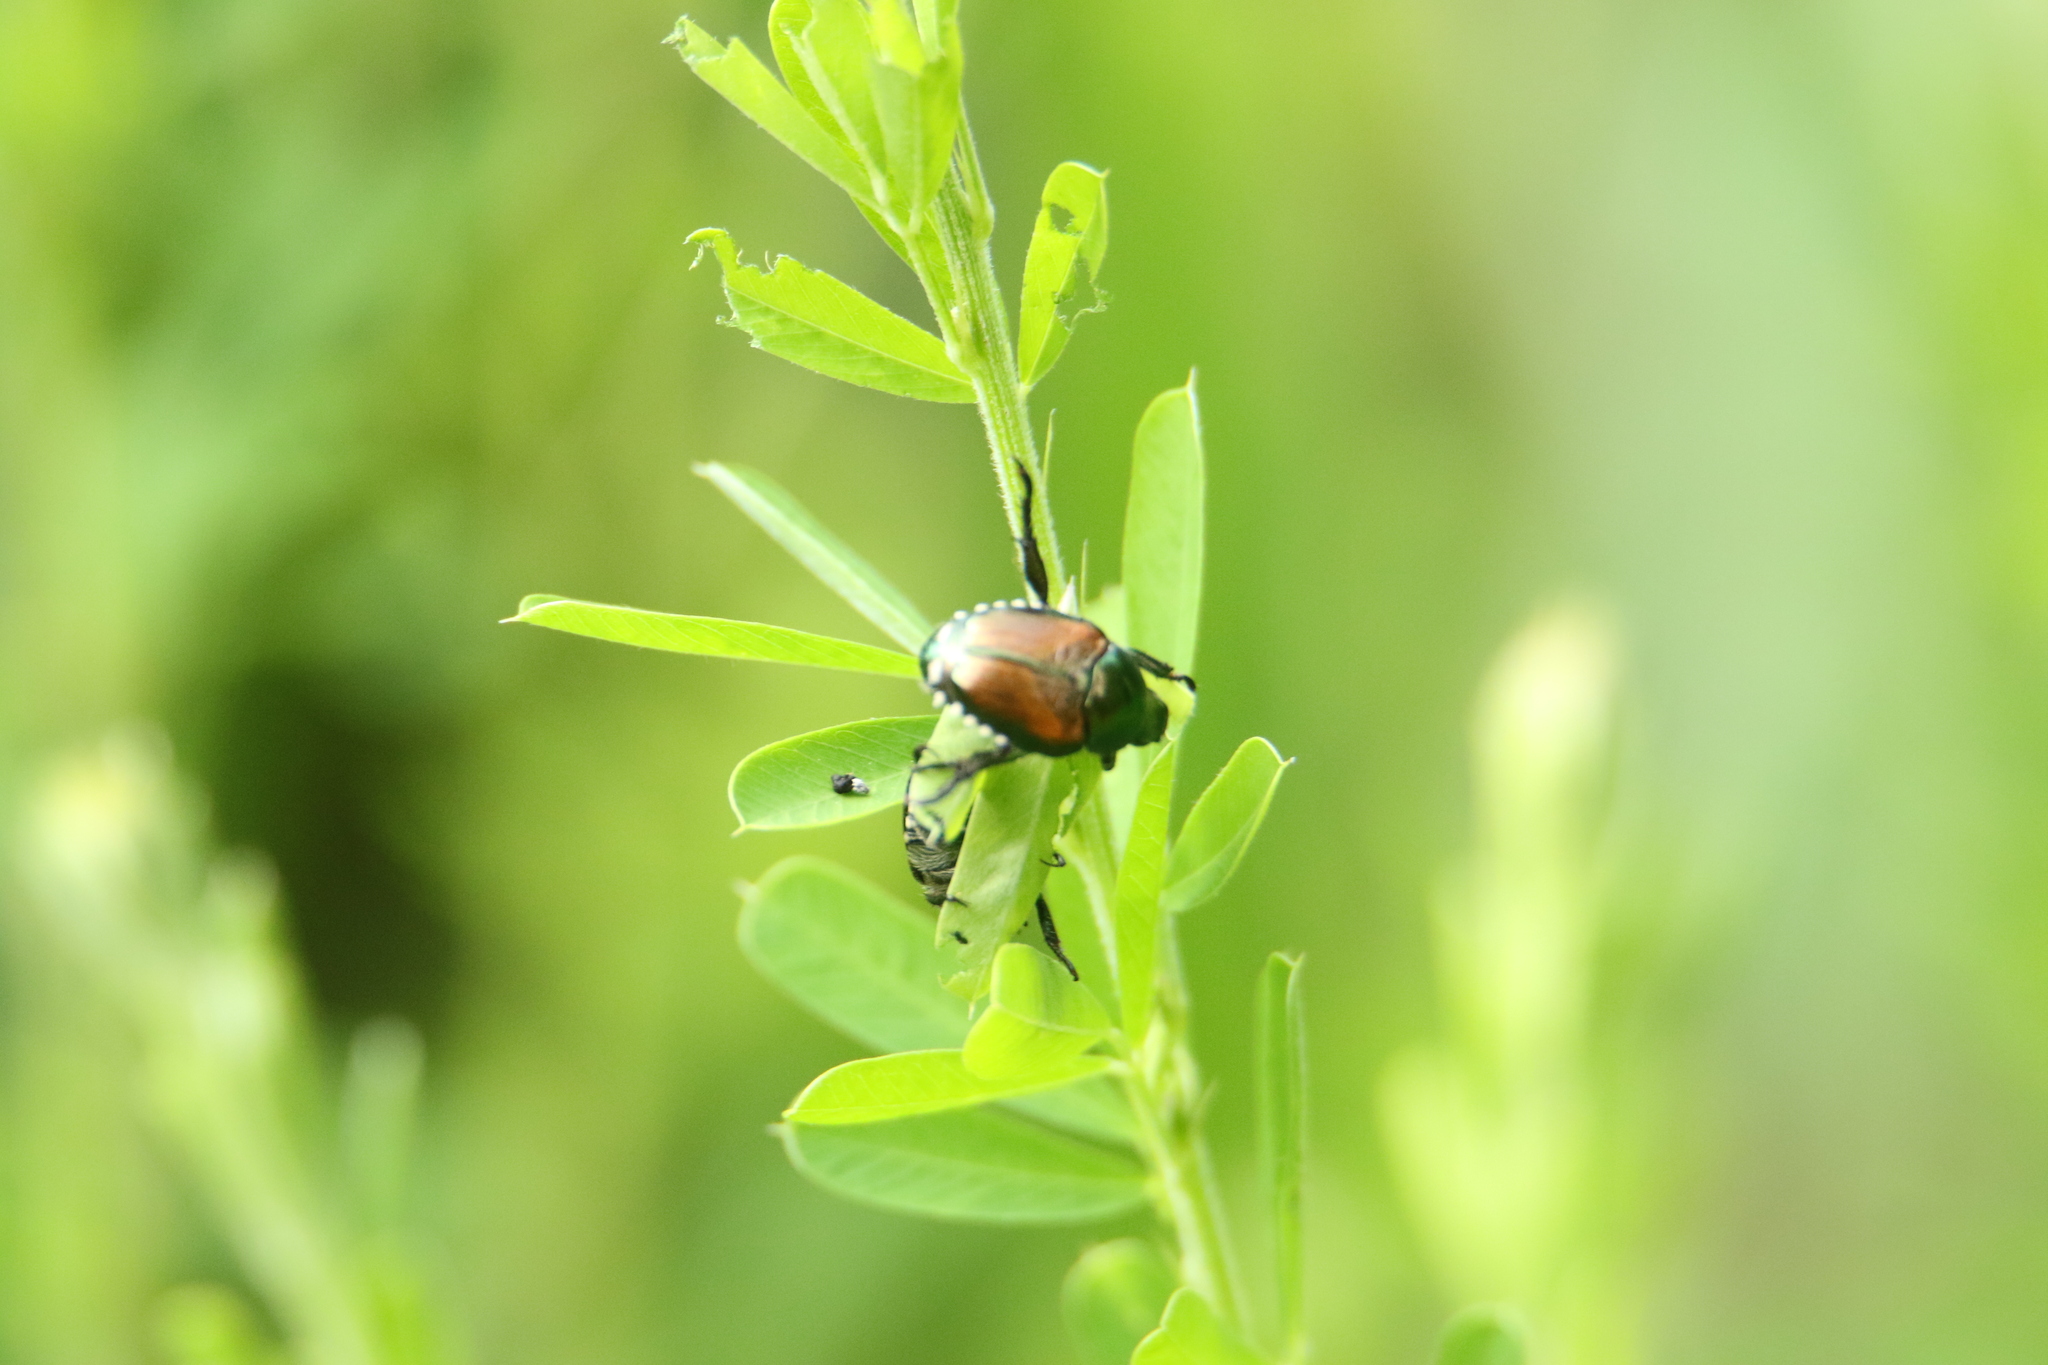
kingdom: Animalia
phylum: Arthropoda
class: Insecta
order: Coleoptera
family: Scarabaeidae
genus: Popillia
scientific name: Popillia japonica
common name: Japanese beetle
